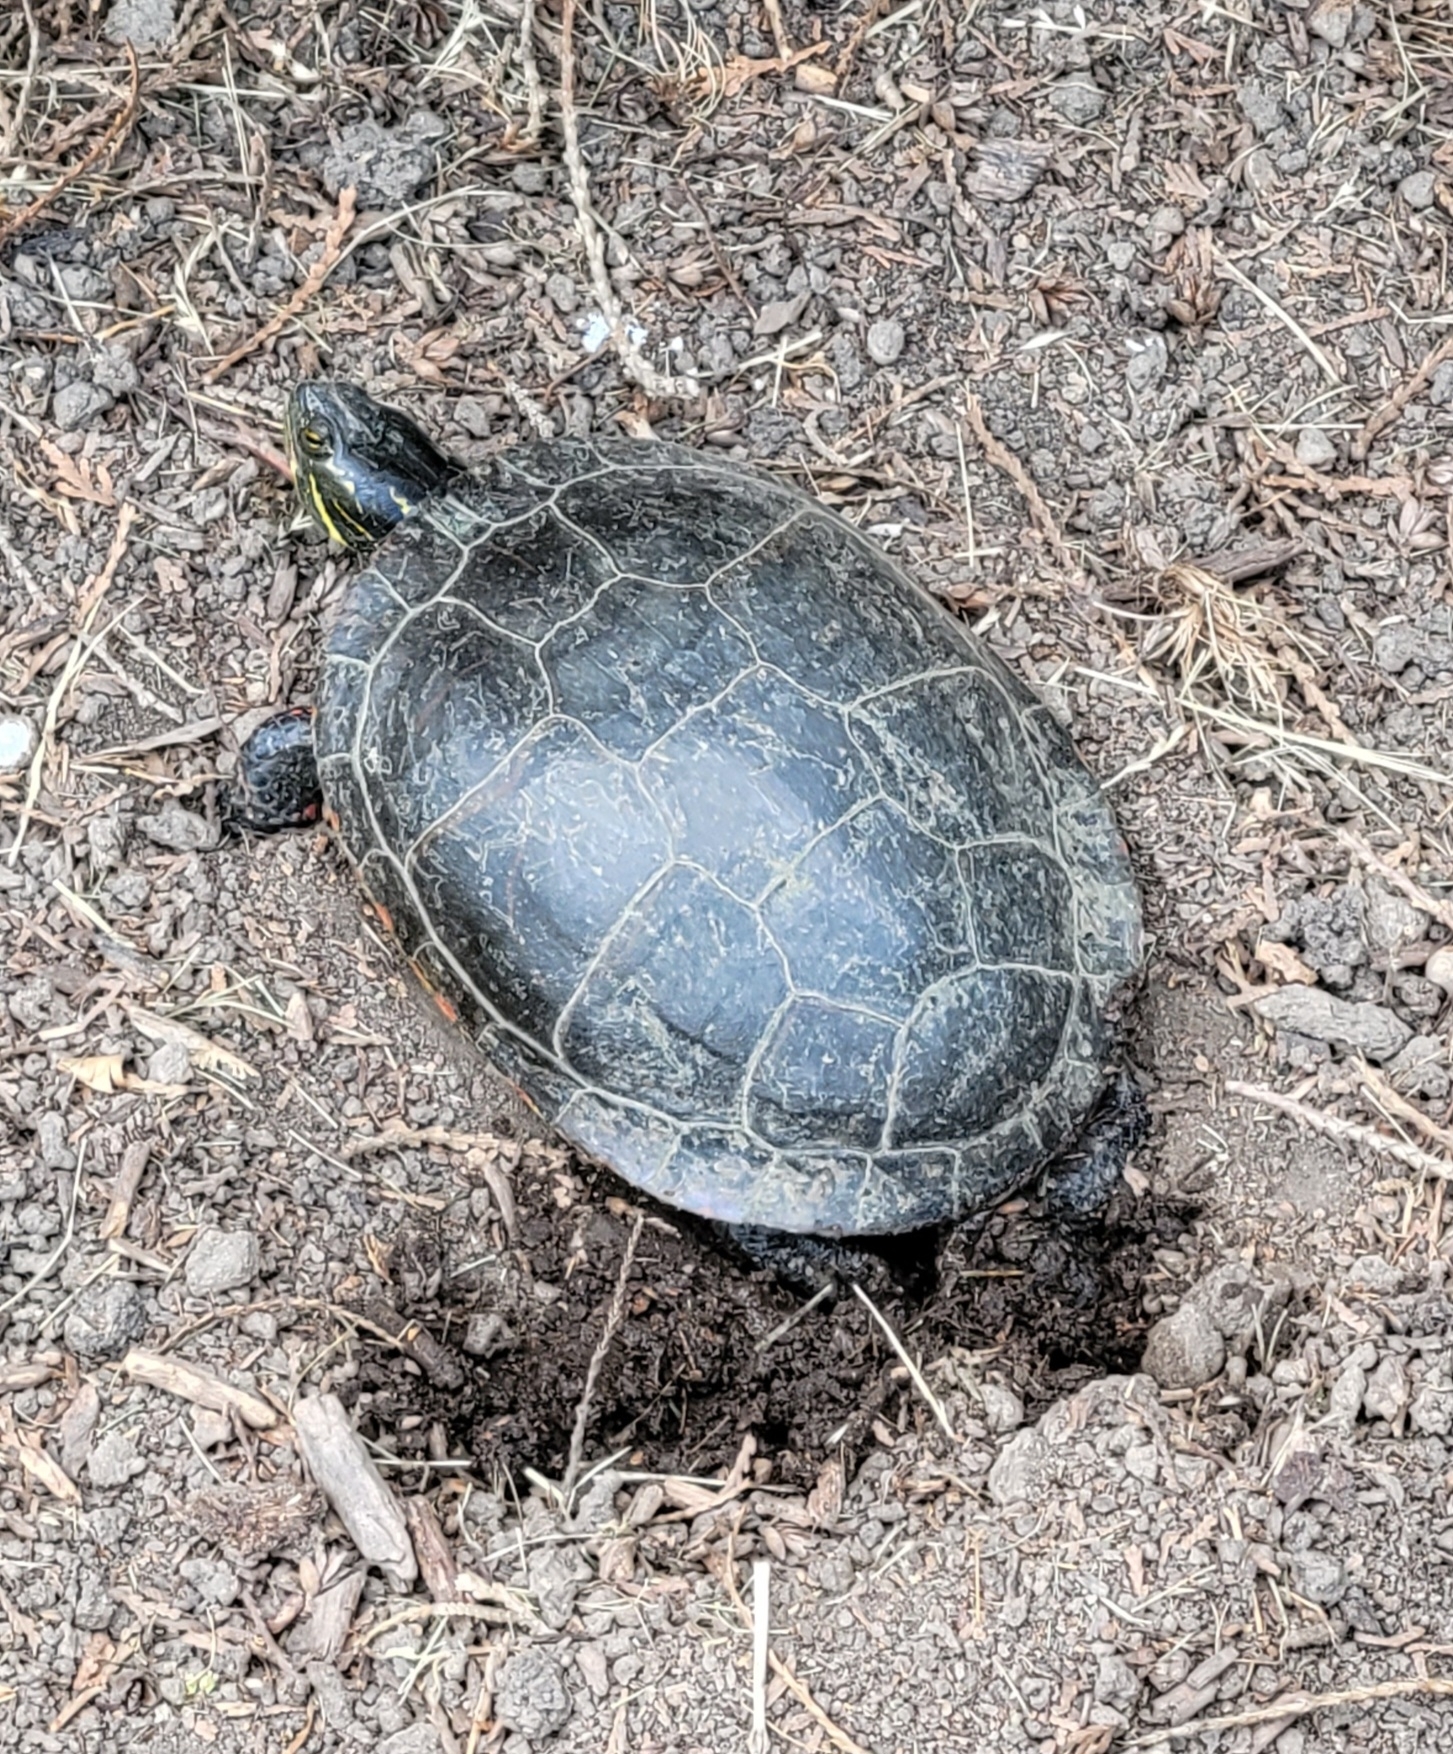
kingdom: Animalia
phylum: Chordata
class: Testudines
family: Emydidae
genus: Chrysemys
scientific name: Chrysemys picta
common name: Painted turtle
